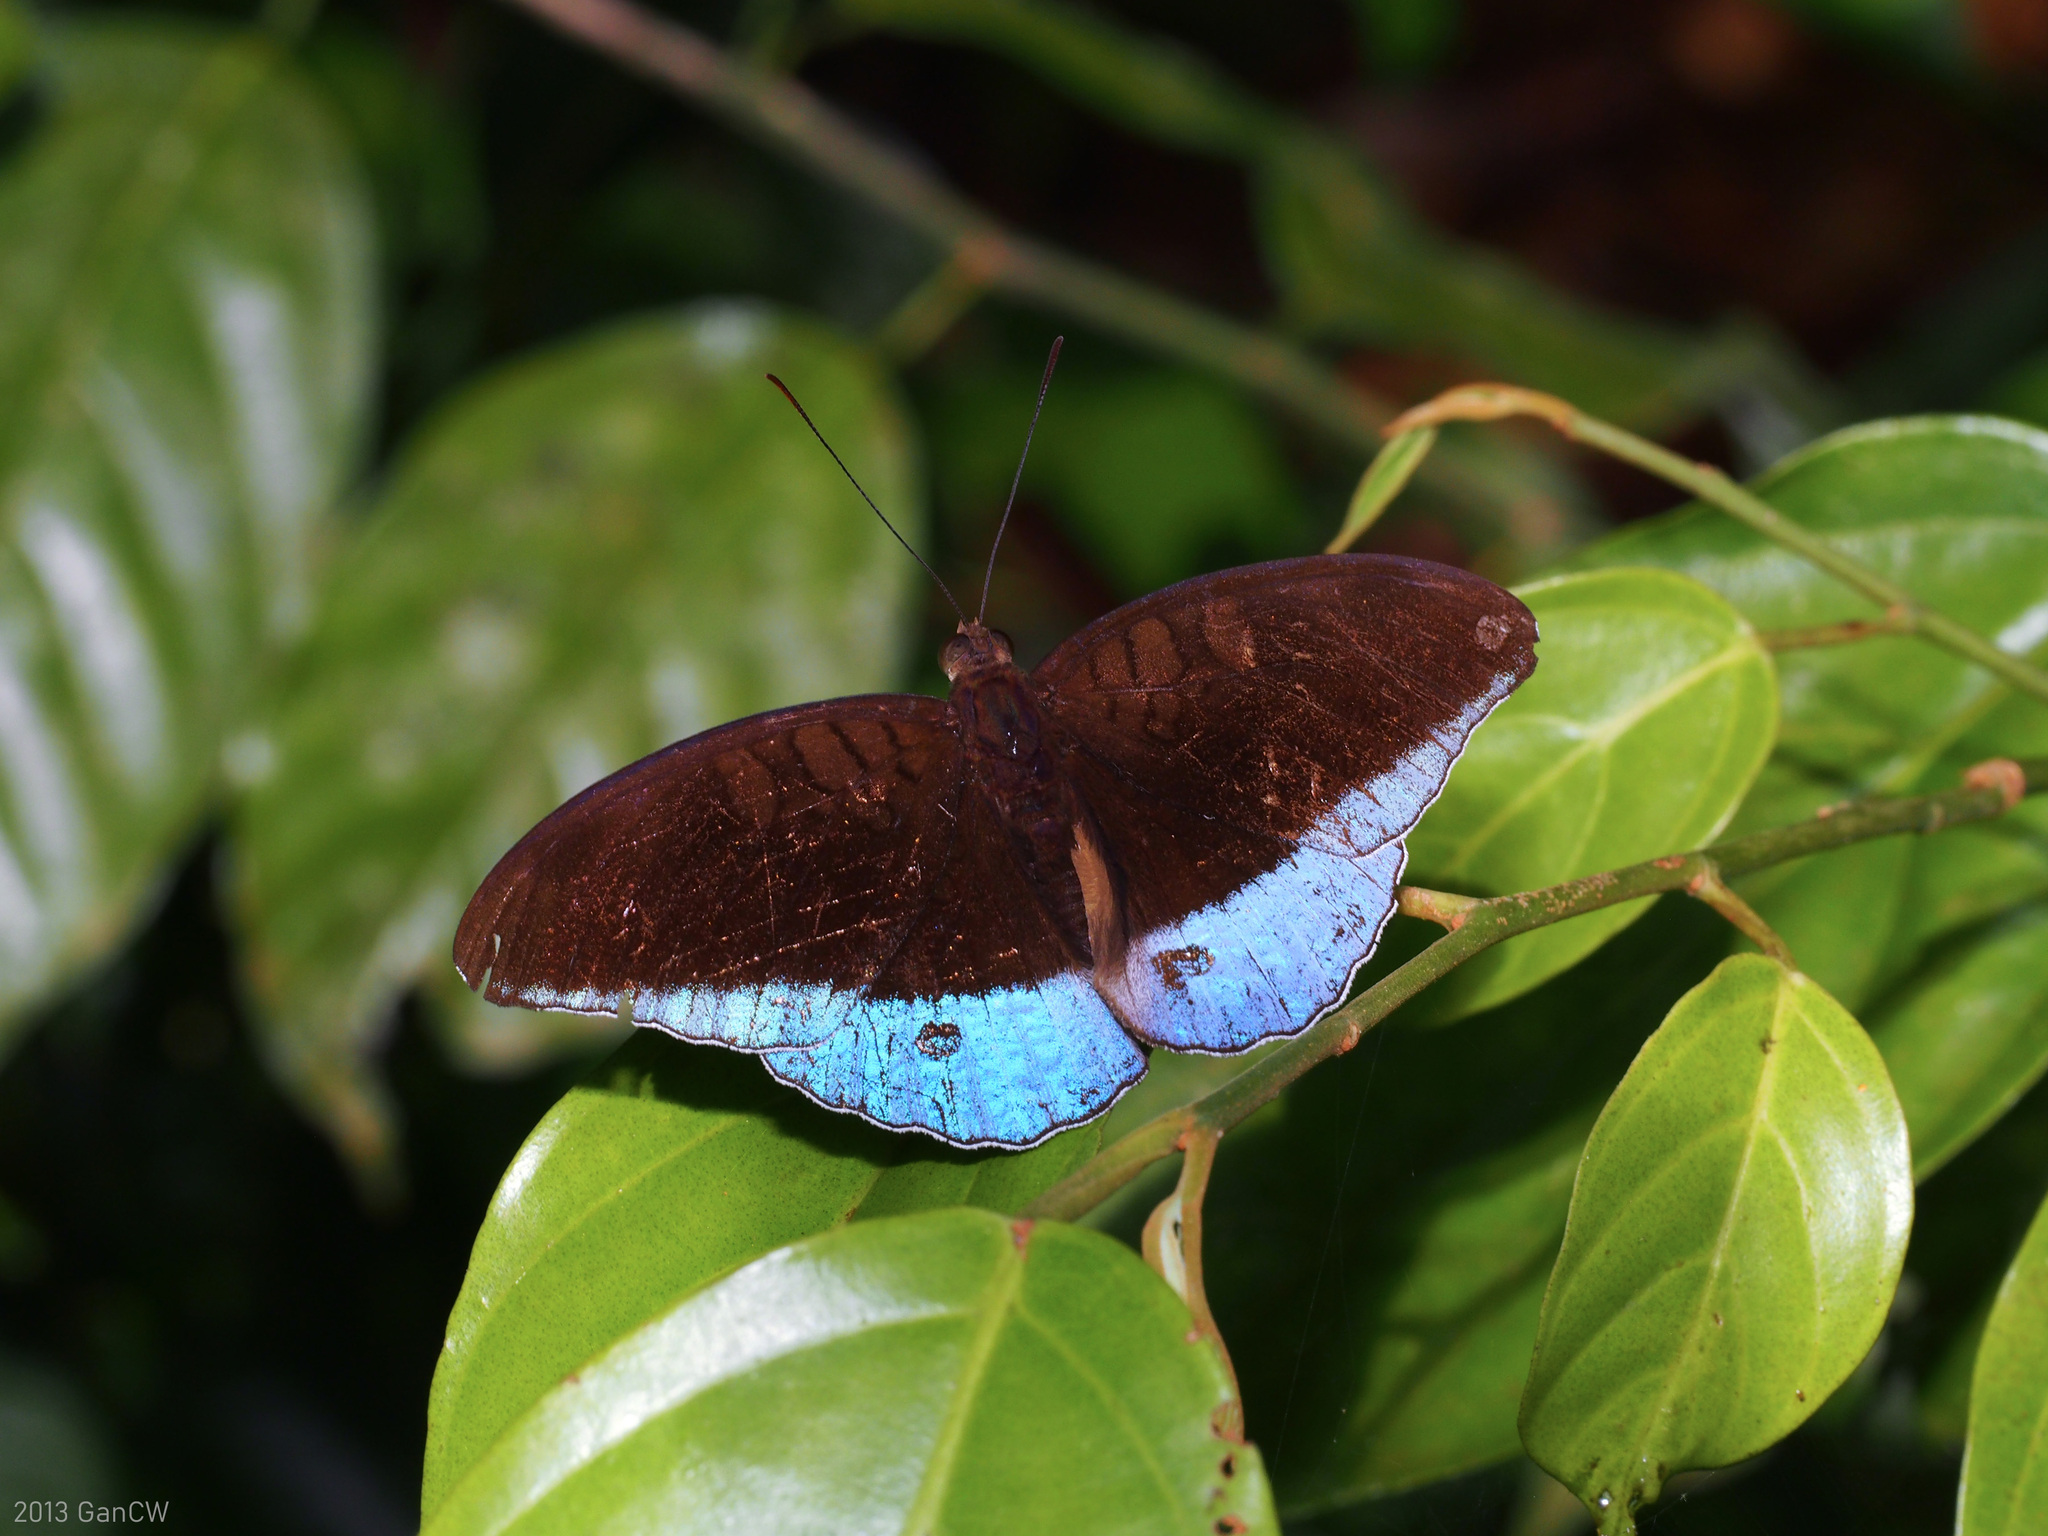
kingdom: Animalia
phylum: Arthropoda
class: Insecta
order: Lepidoptera
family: Nymphalidae
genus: Tanaecia
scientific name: Tanaecia iapis
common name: Horsfield's baron
